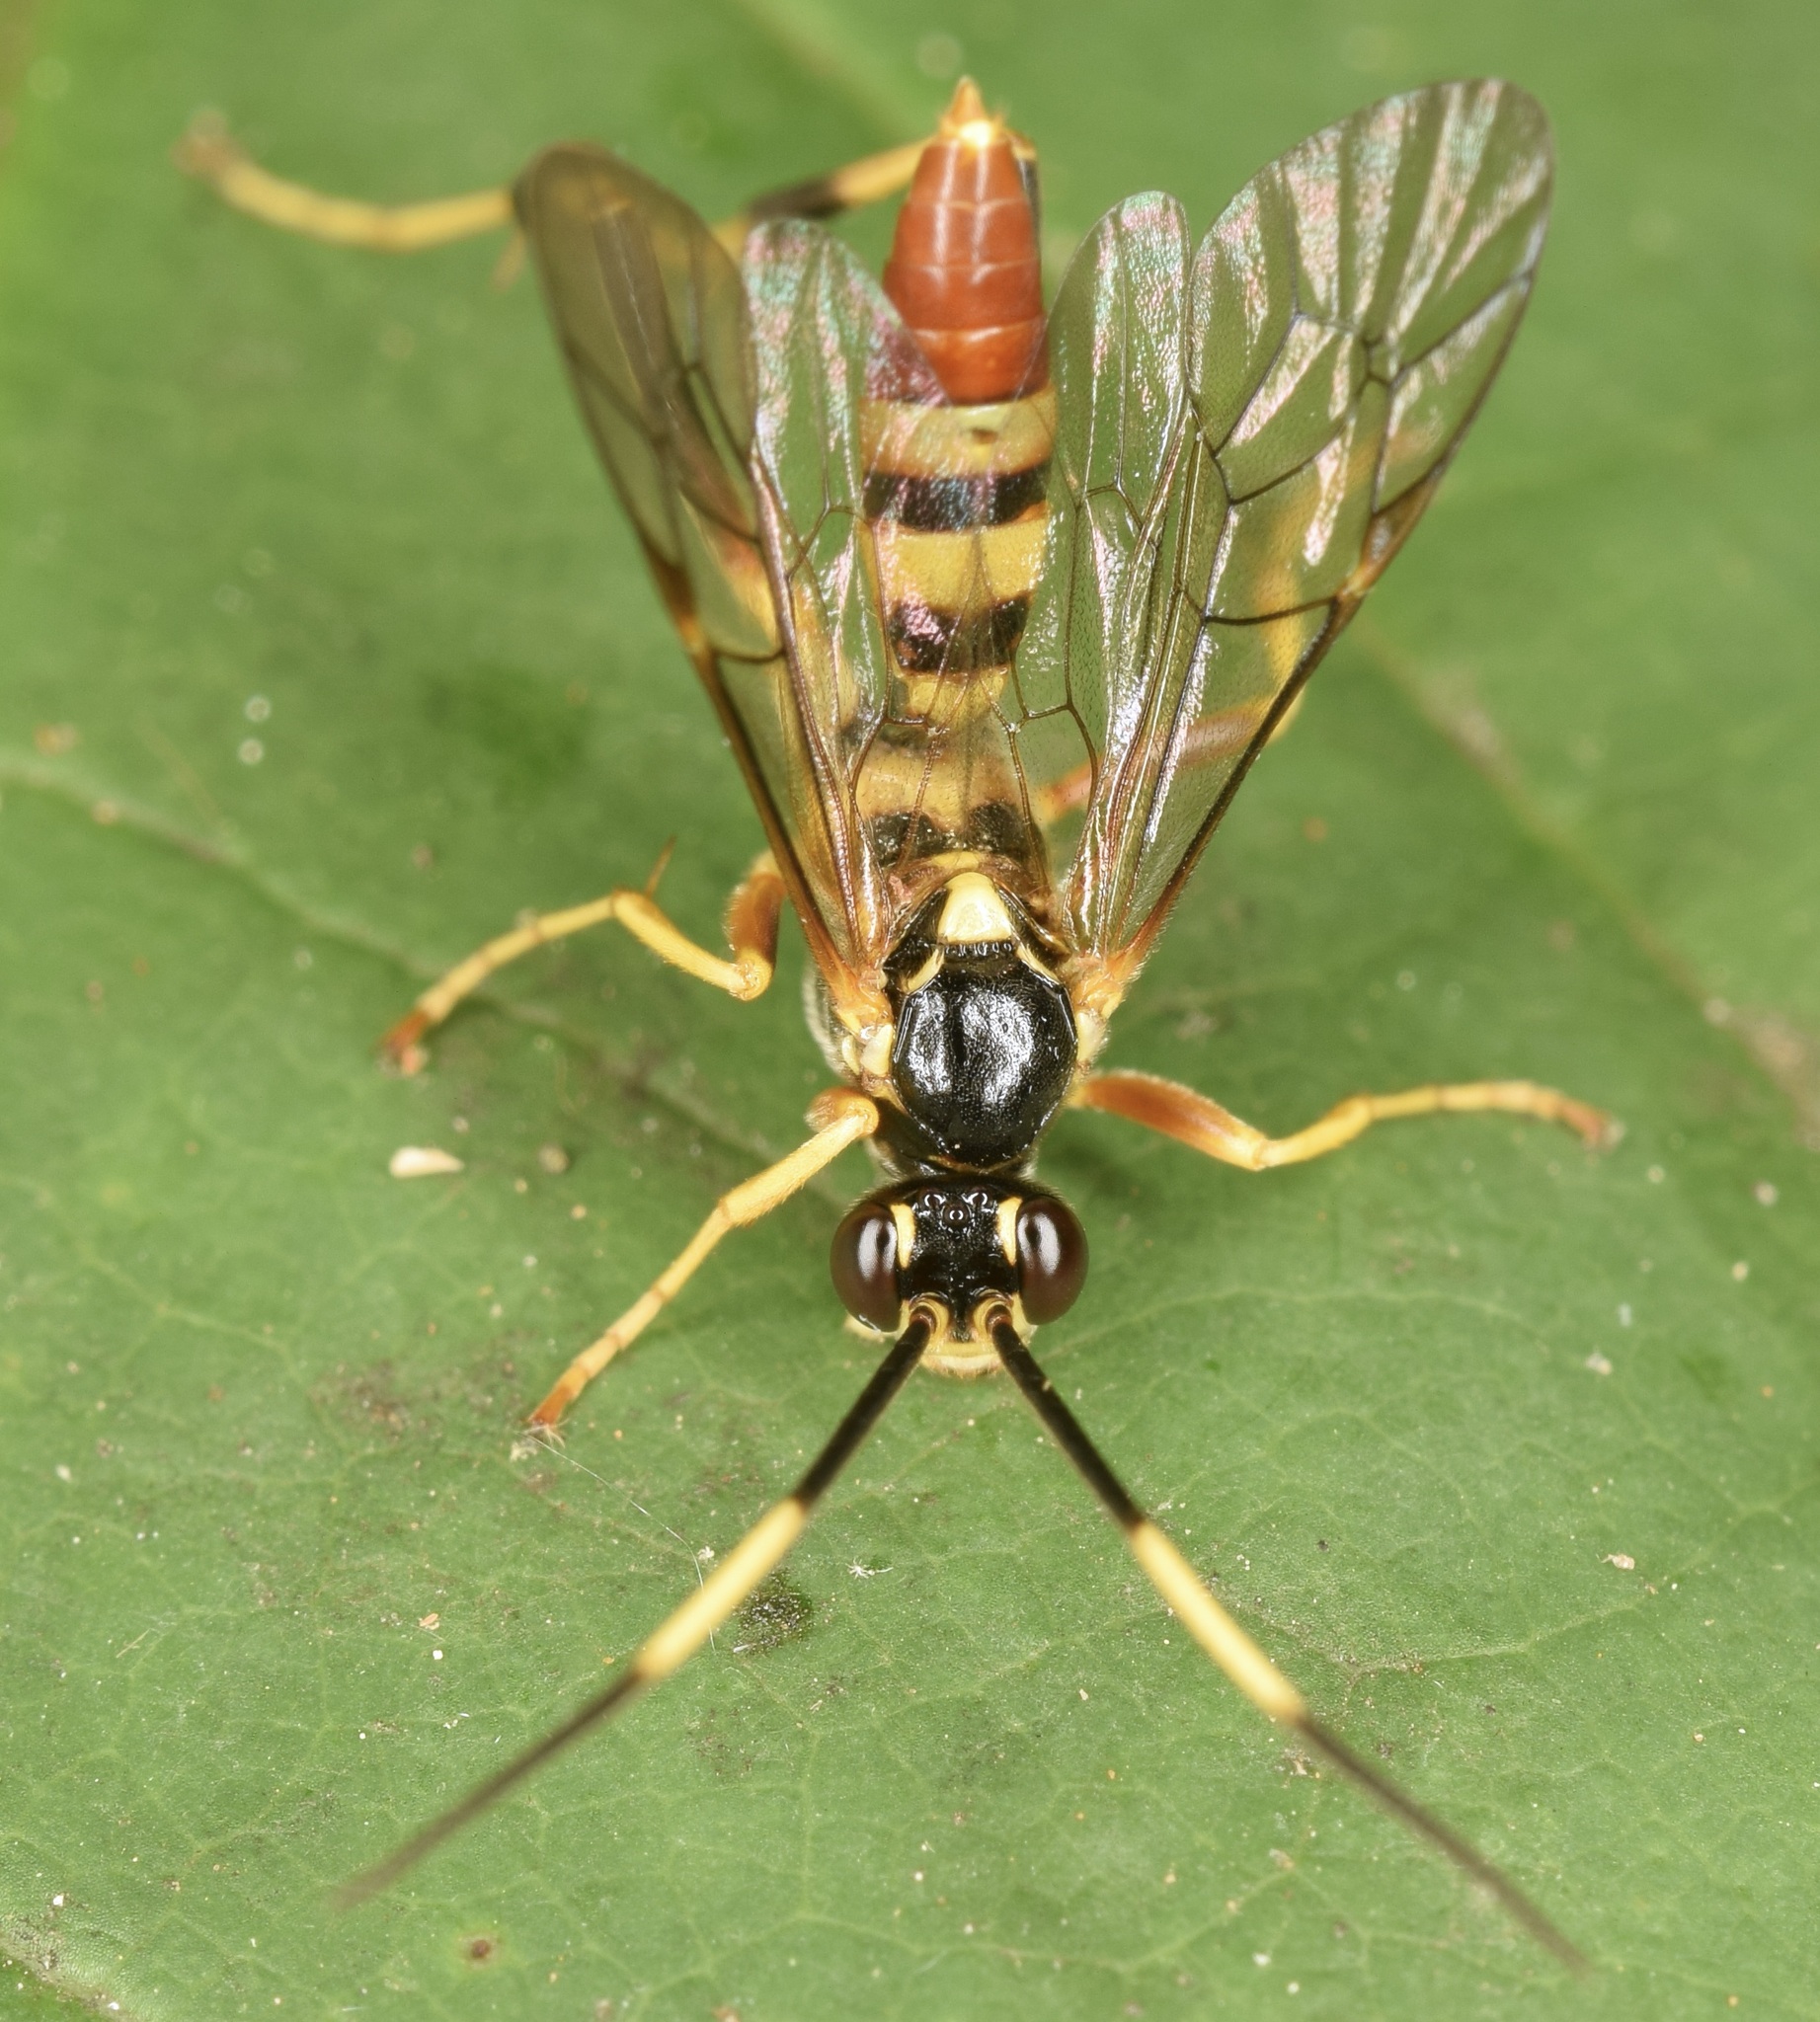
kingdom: Animalia
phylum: Arthropoda
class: Insecta
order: Hymenoptera
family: Ichneumonidae
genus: Polytribax
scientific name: Polytribax contiguus
